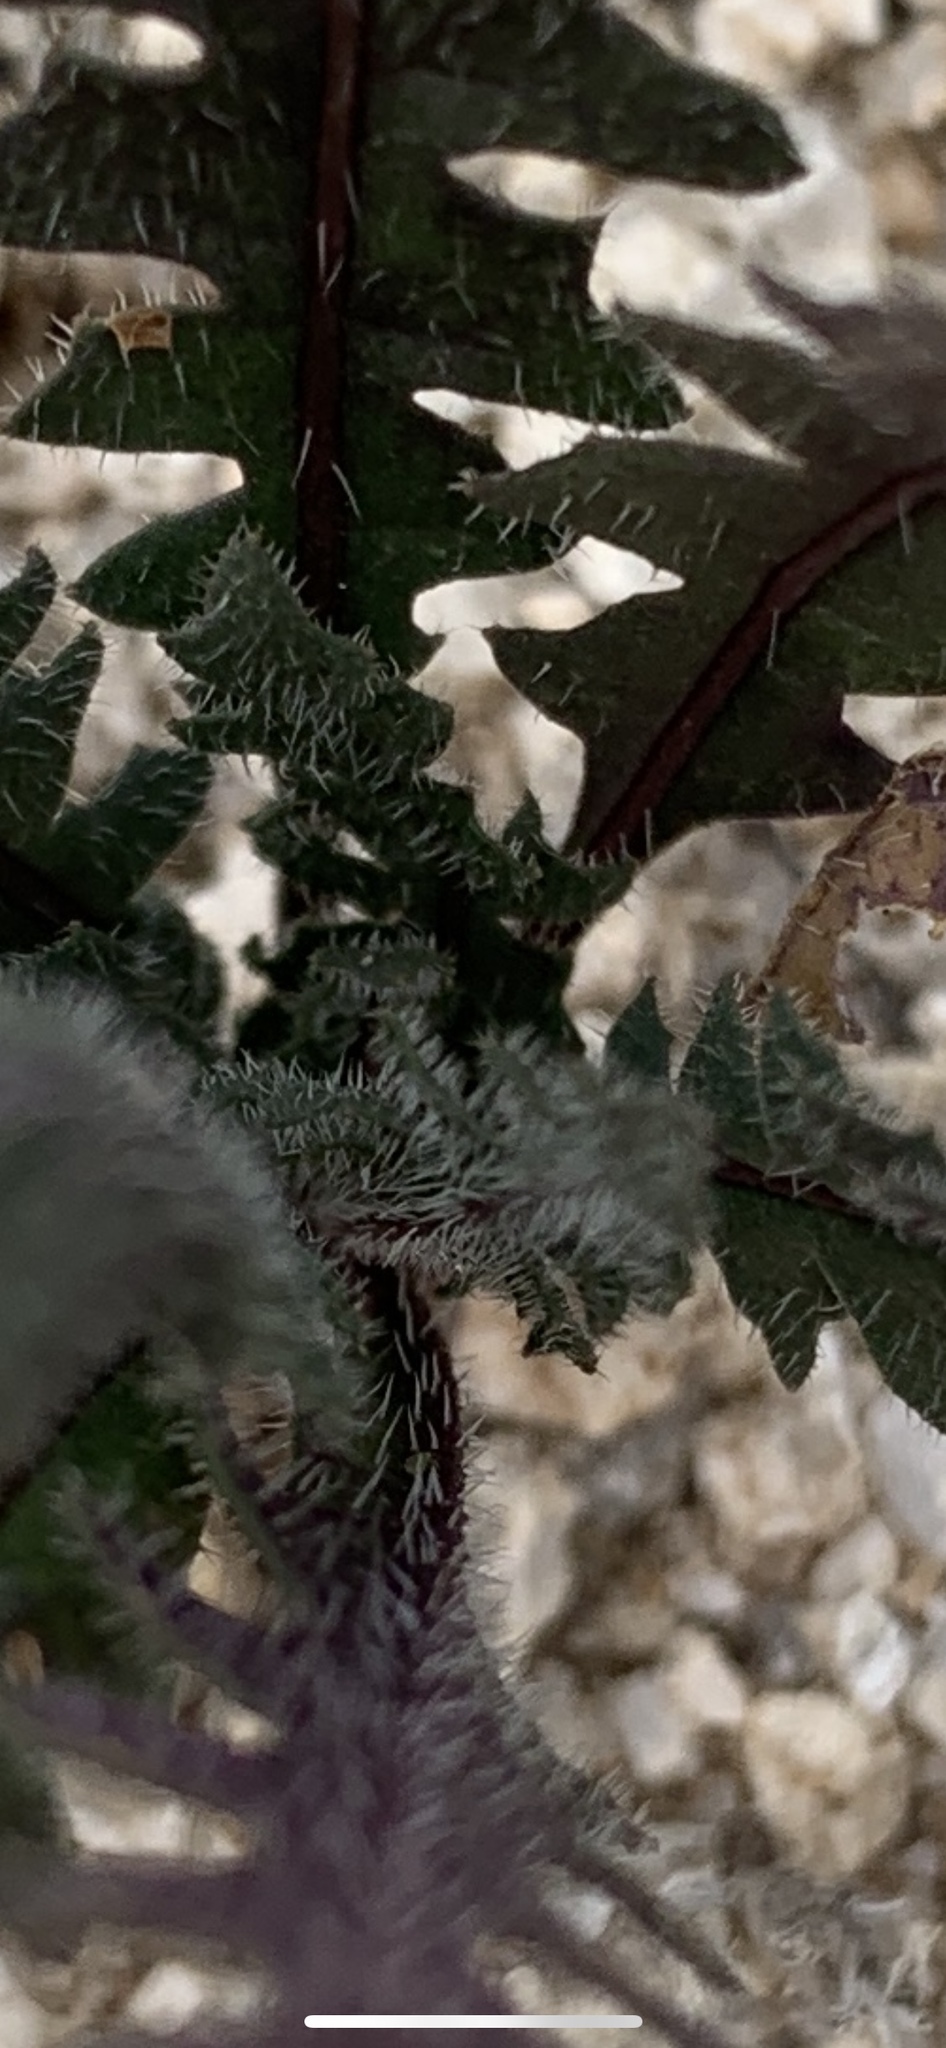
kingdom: Plantae
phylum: Tracheophyta
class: Magnoliopsida
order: Brassicales
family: Brassicaceae
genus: Streptanthus
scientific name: Streptanthus lasiophyllus
